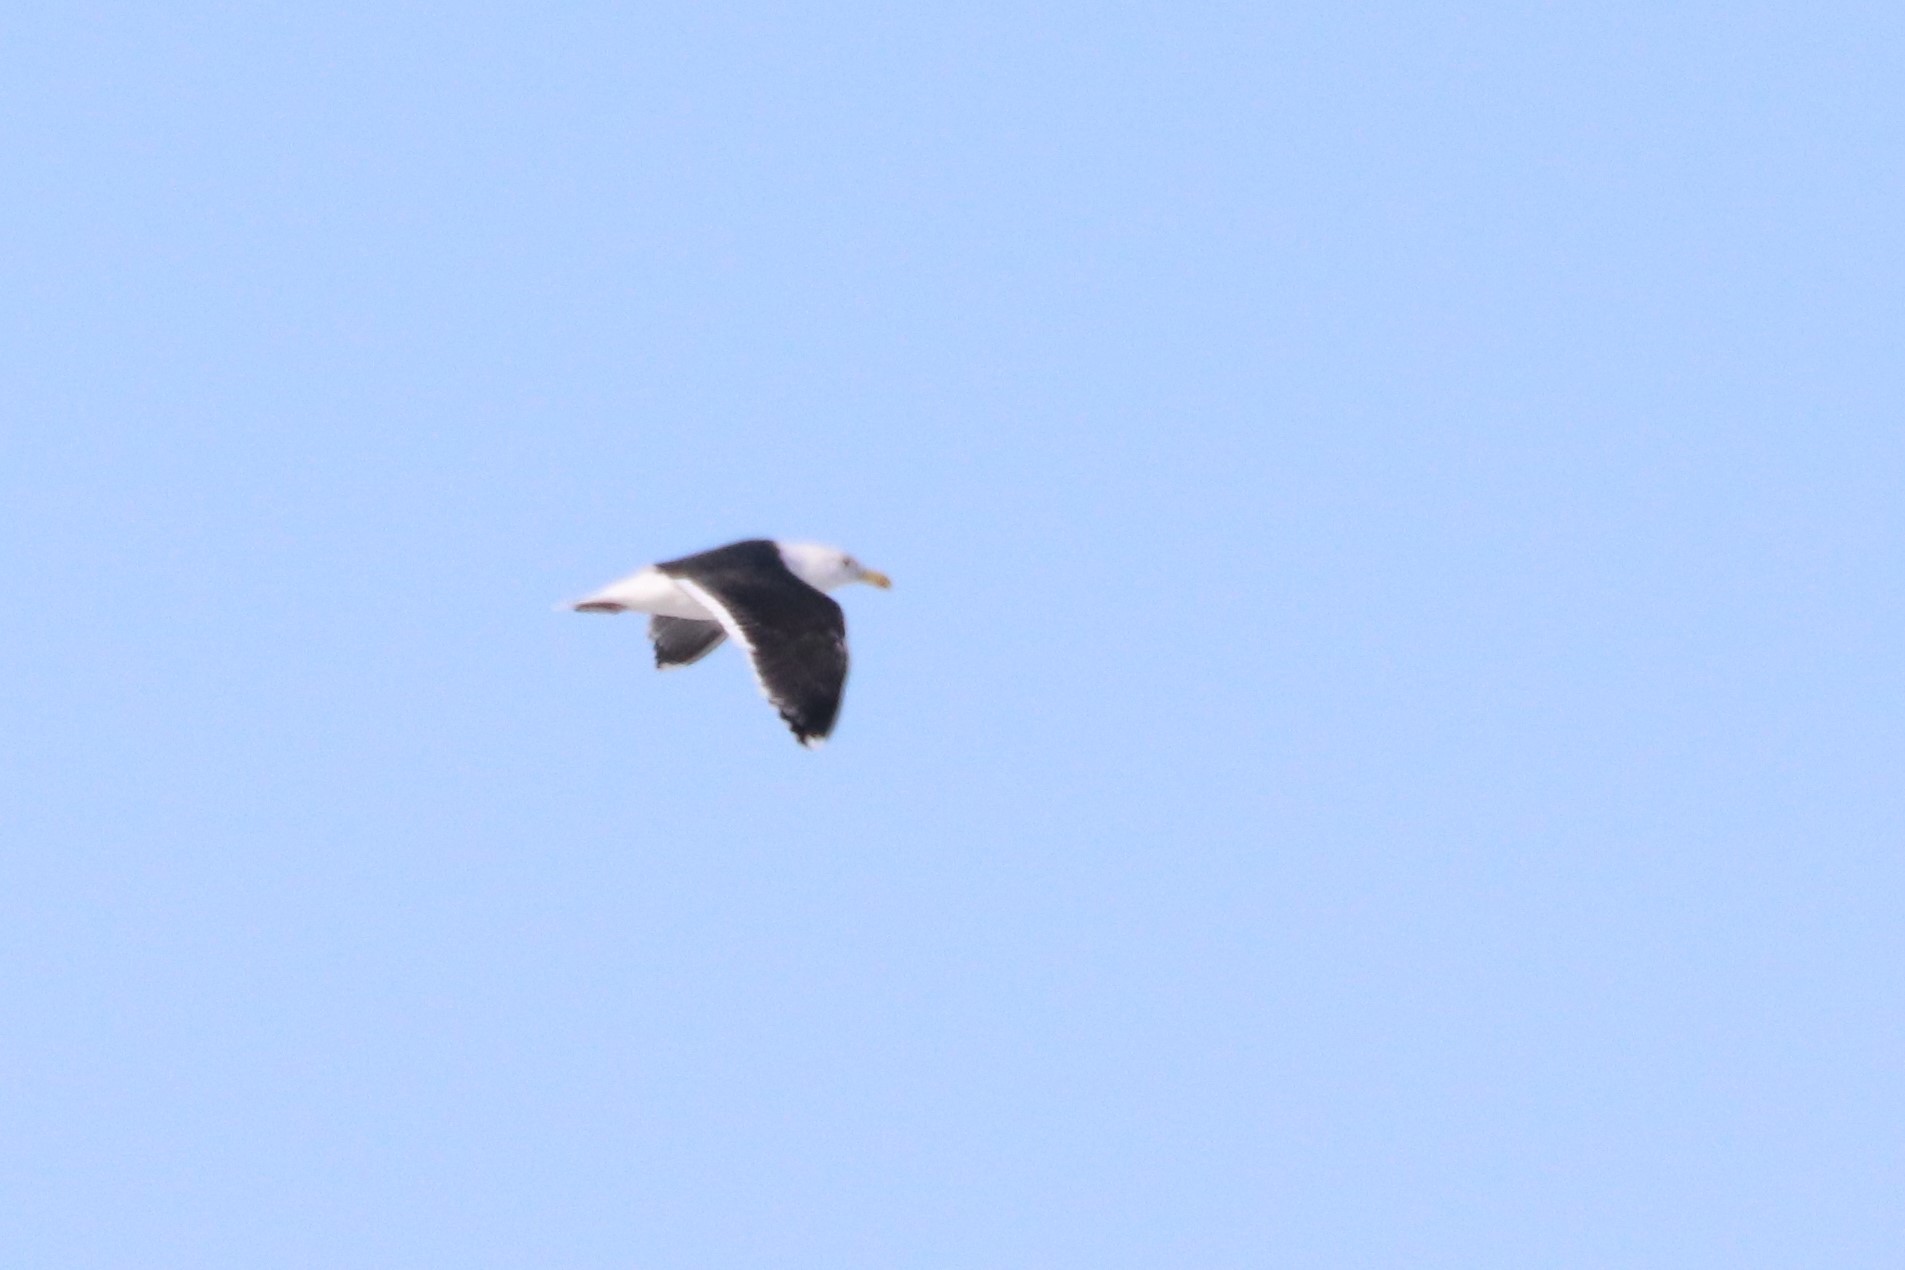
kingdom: Animalia
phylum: Chordata
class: Aves
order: Charadriiformes
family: Laridae
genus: Larus
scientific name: Larus marinus
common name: Great black-backed gull
